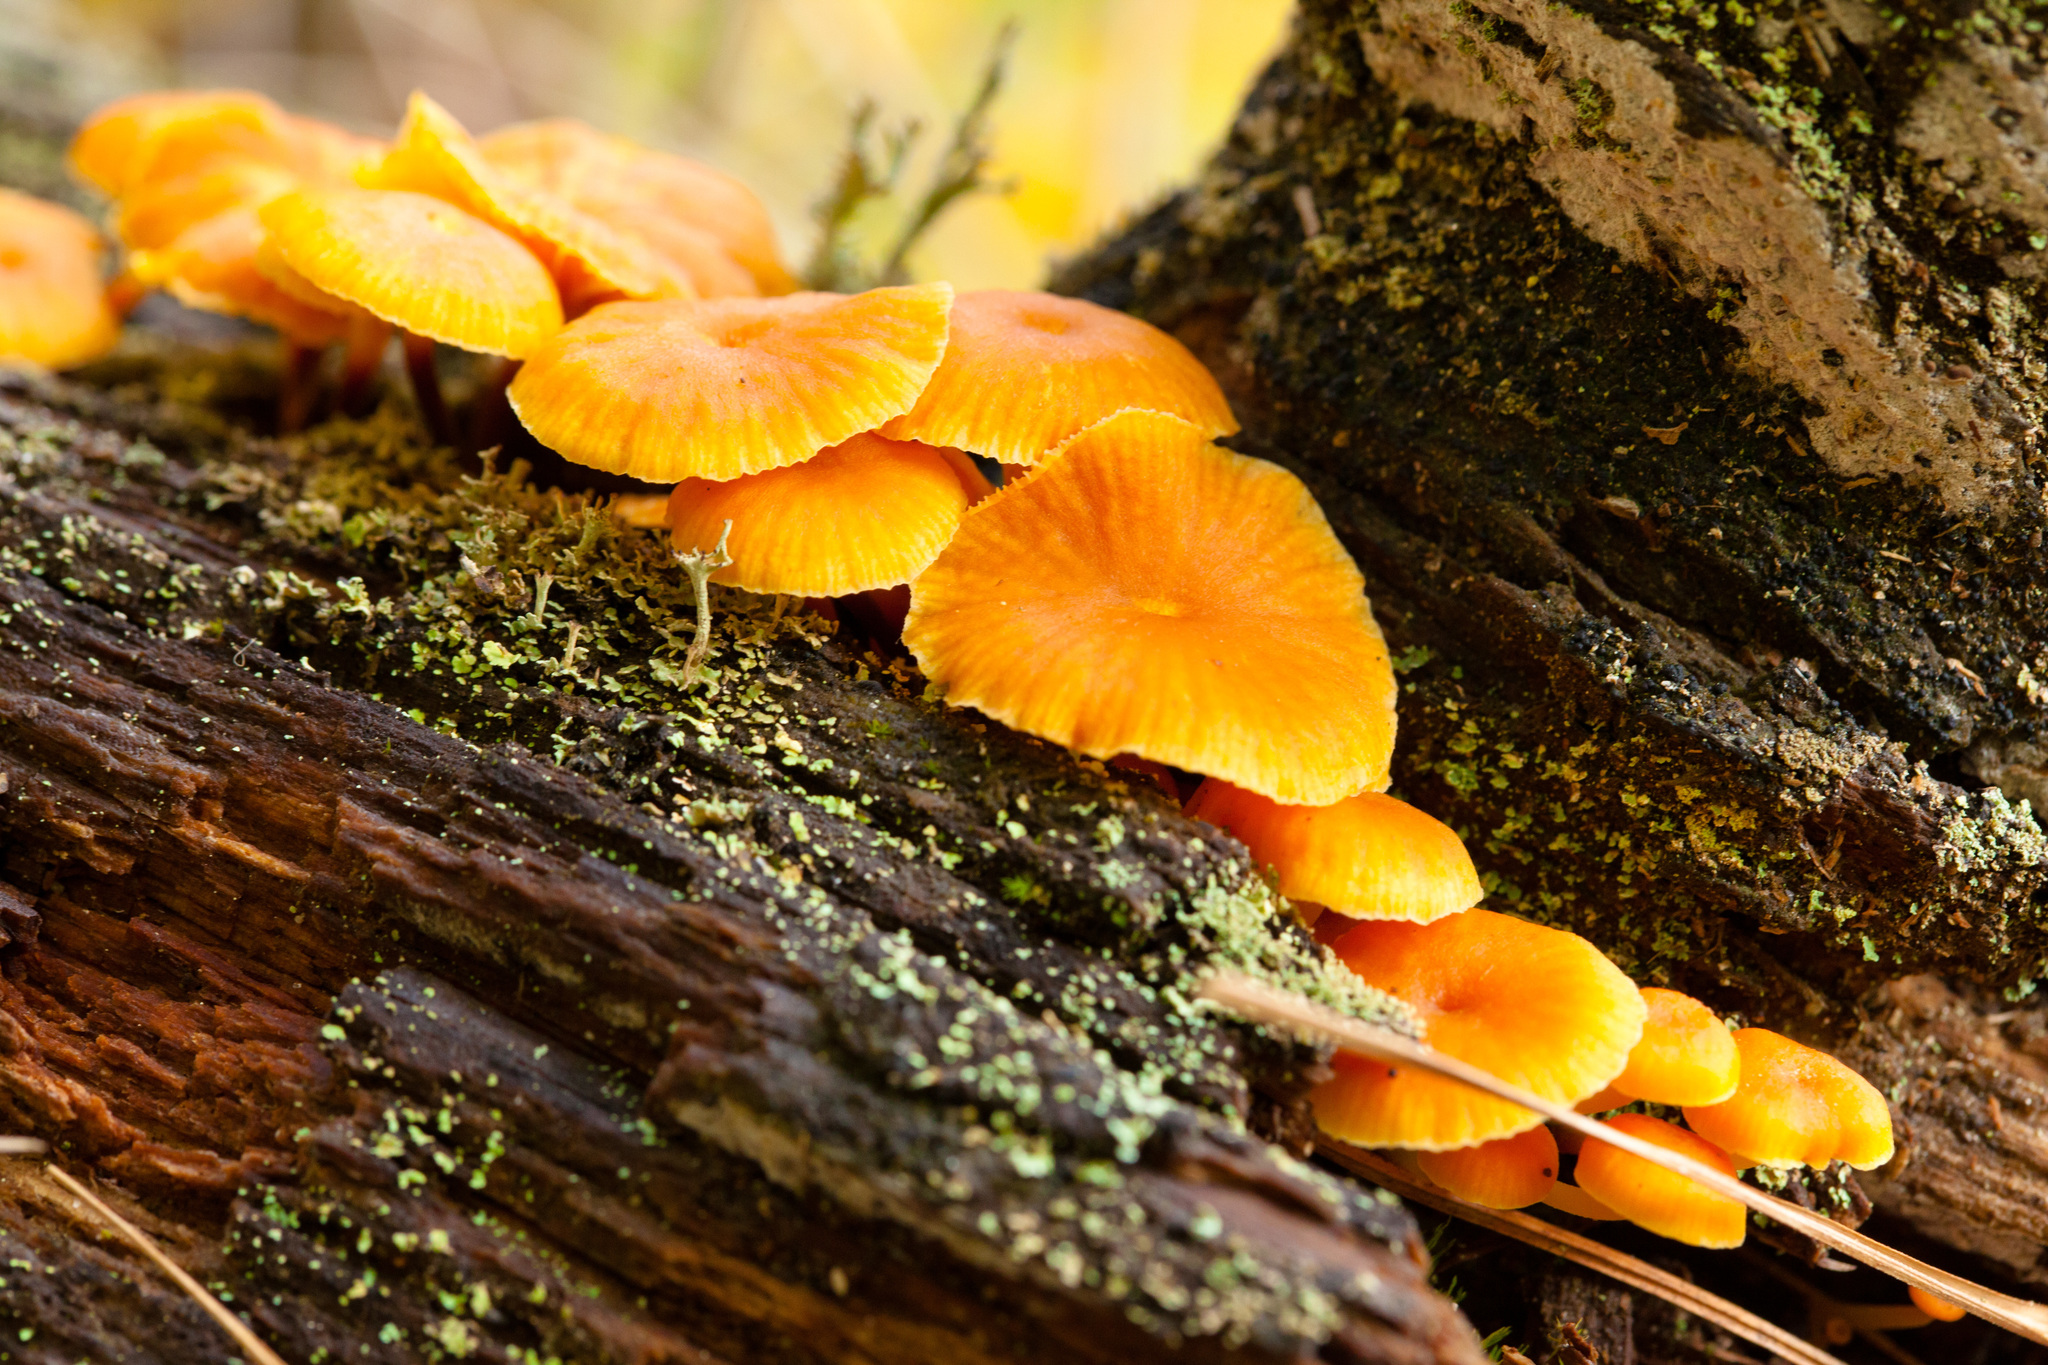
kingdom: Fungi
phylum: Basidiomycota
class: Agaricomycetes
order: Agaricales
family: Mycenaceae
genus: Xeromphalina
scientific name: Xeromphalina campanella
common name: Pinewood gingertail
